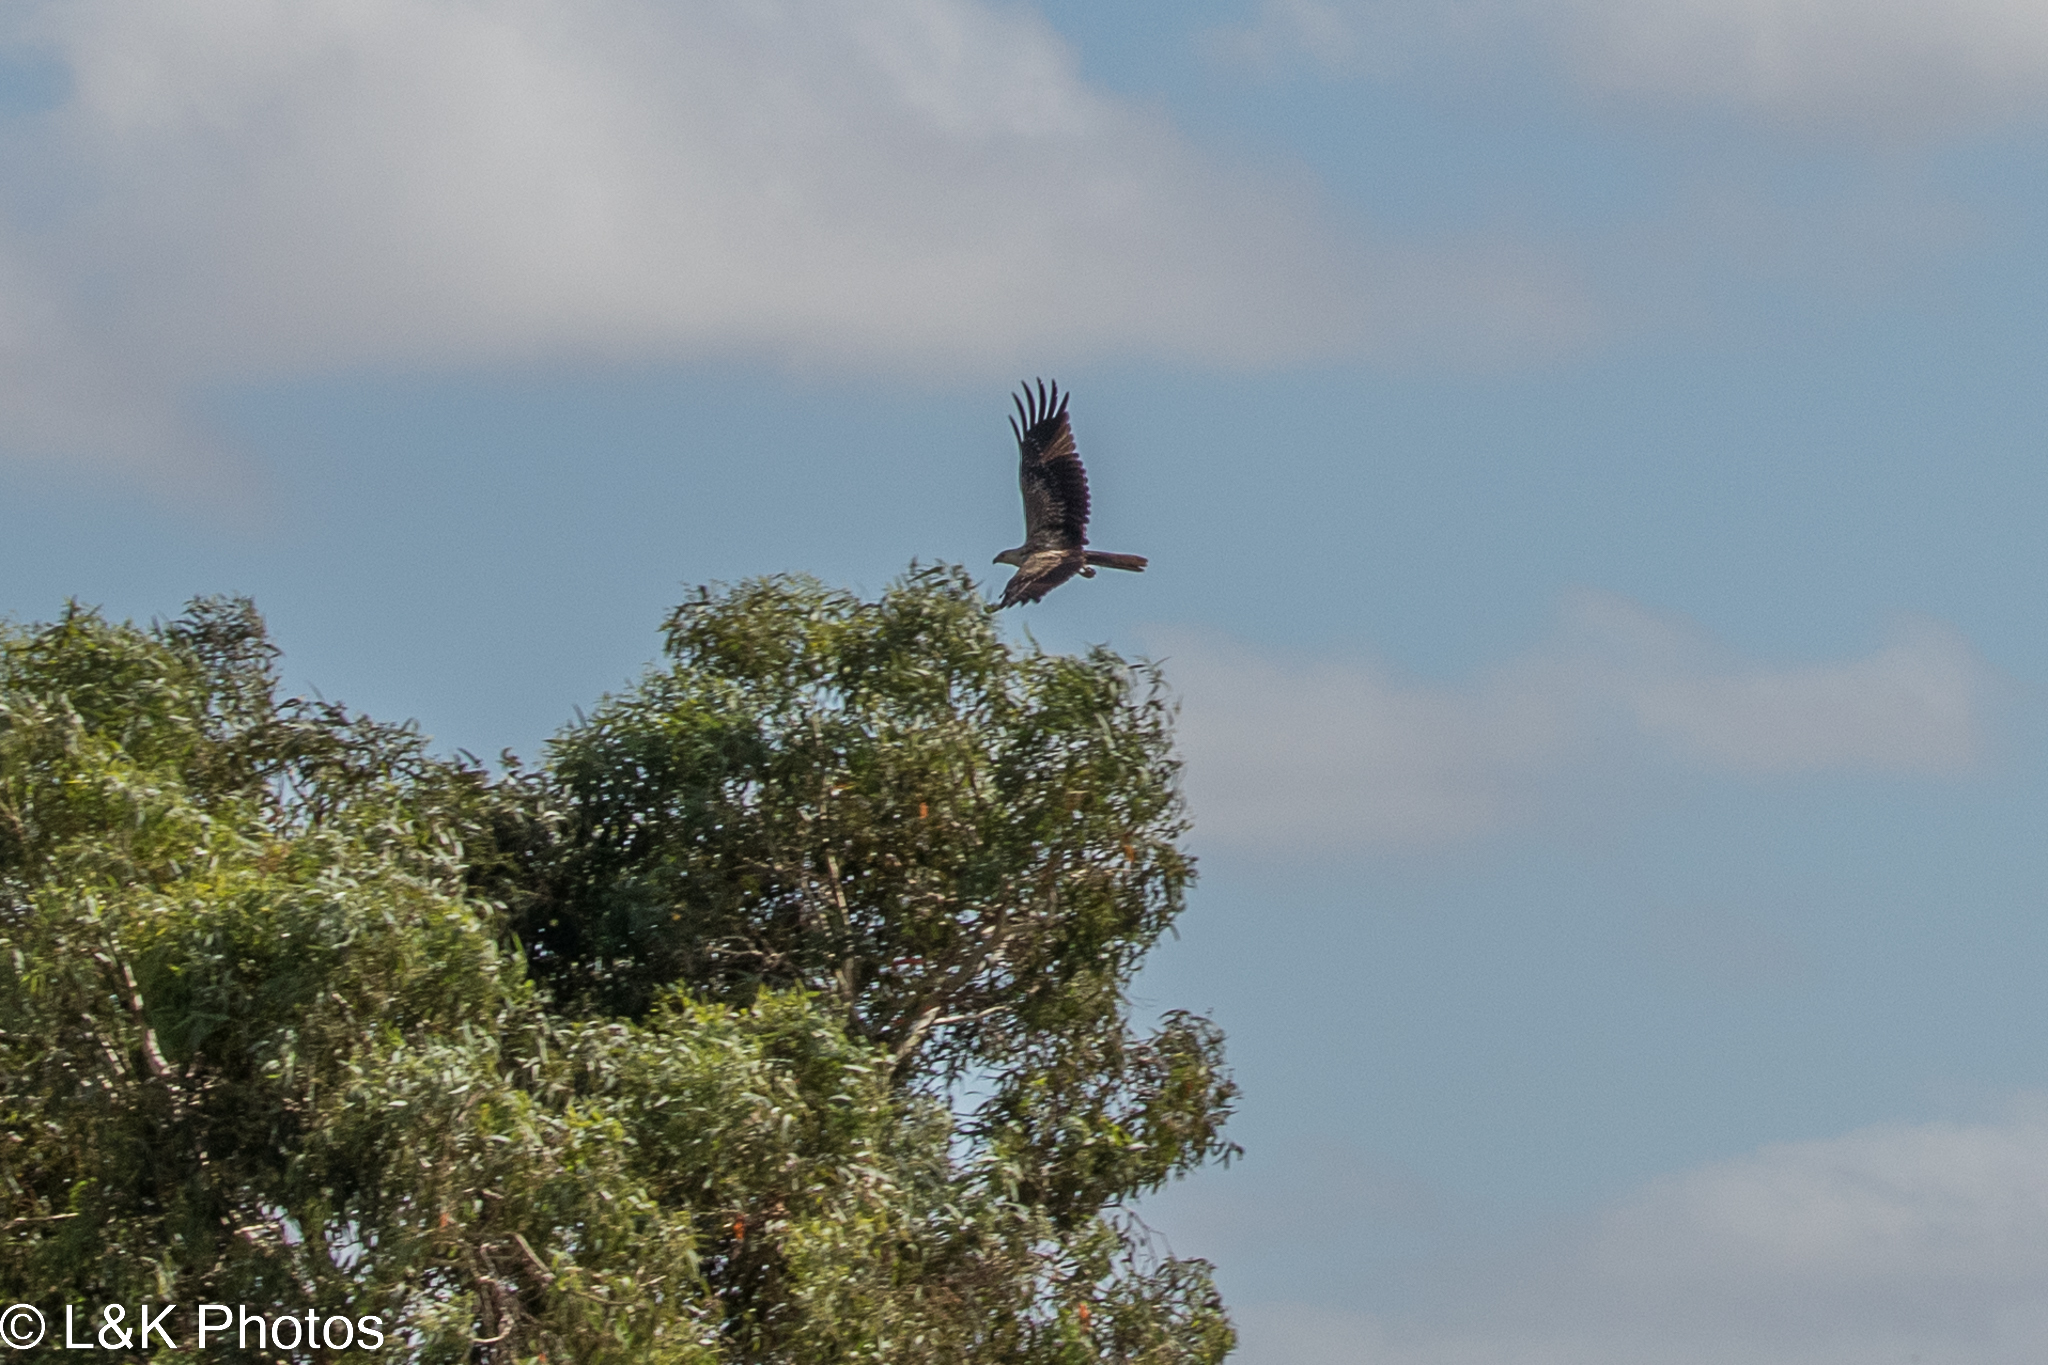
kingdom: Animalia
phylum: Chordata
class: Aves
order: Accipitriformes
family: Accipitridae
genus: Haliastur
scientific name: Haliastur sphenurus
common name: Whistling kite
